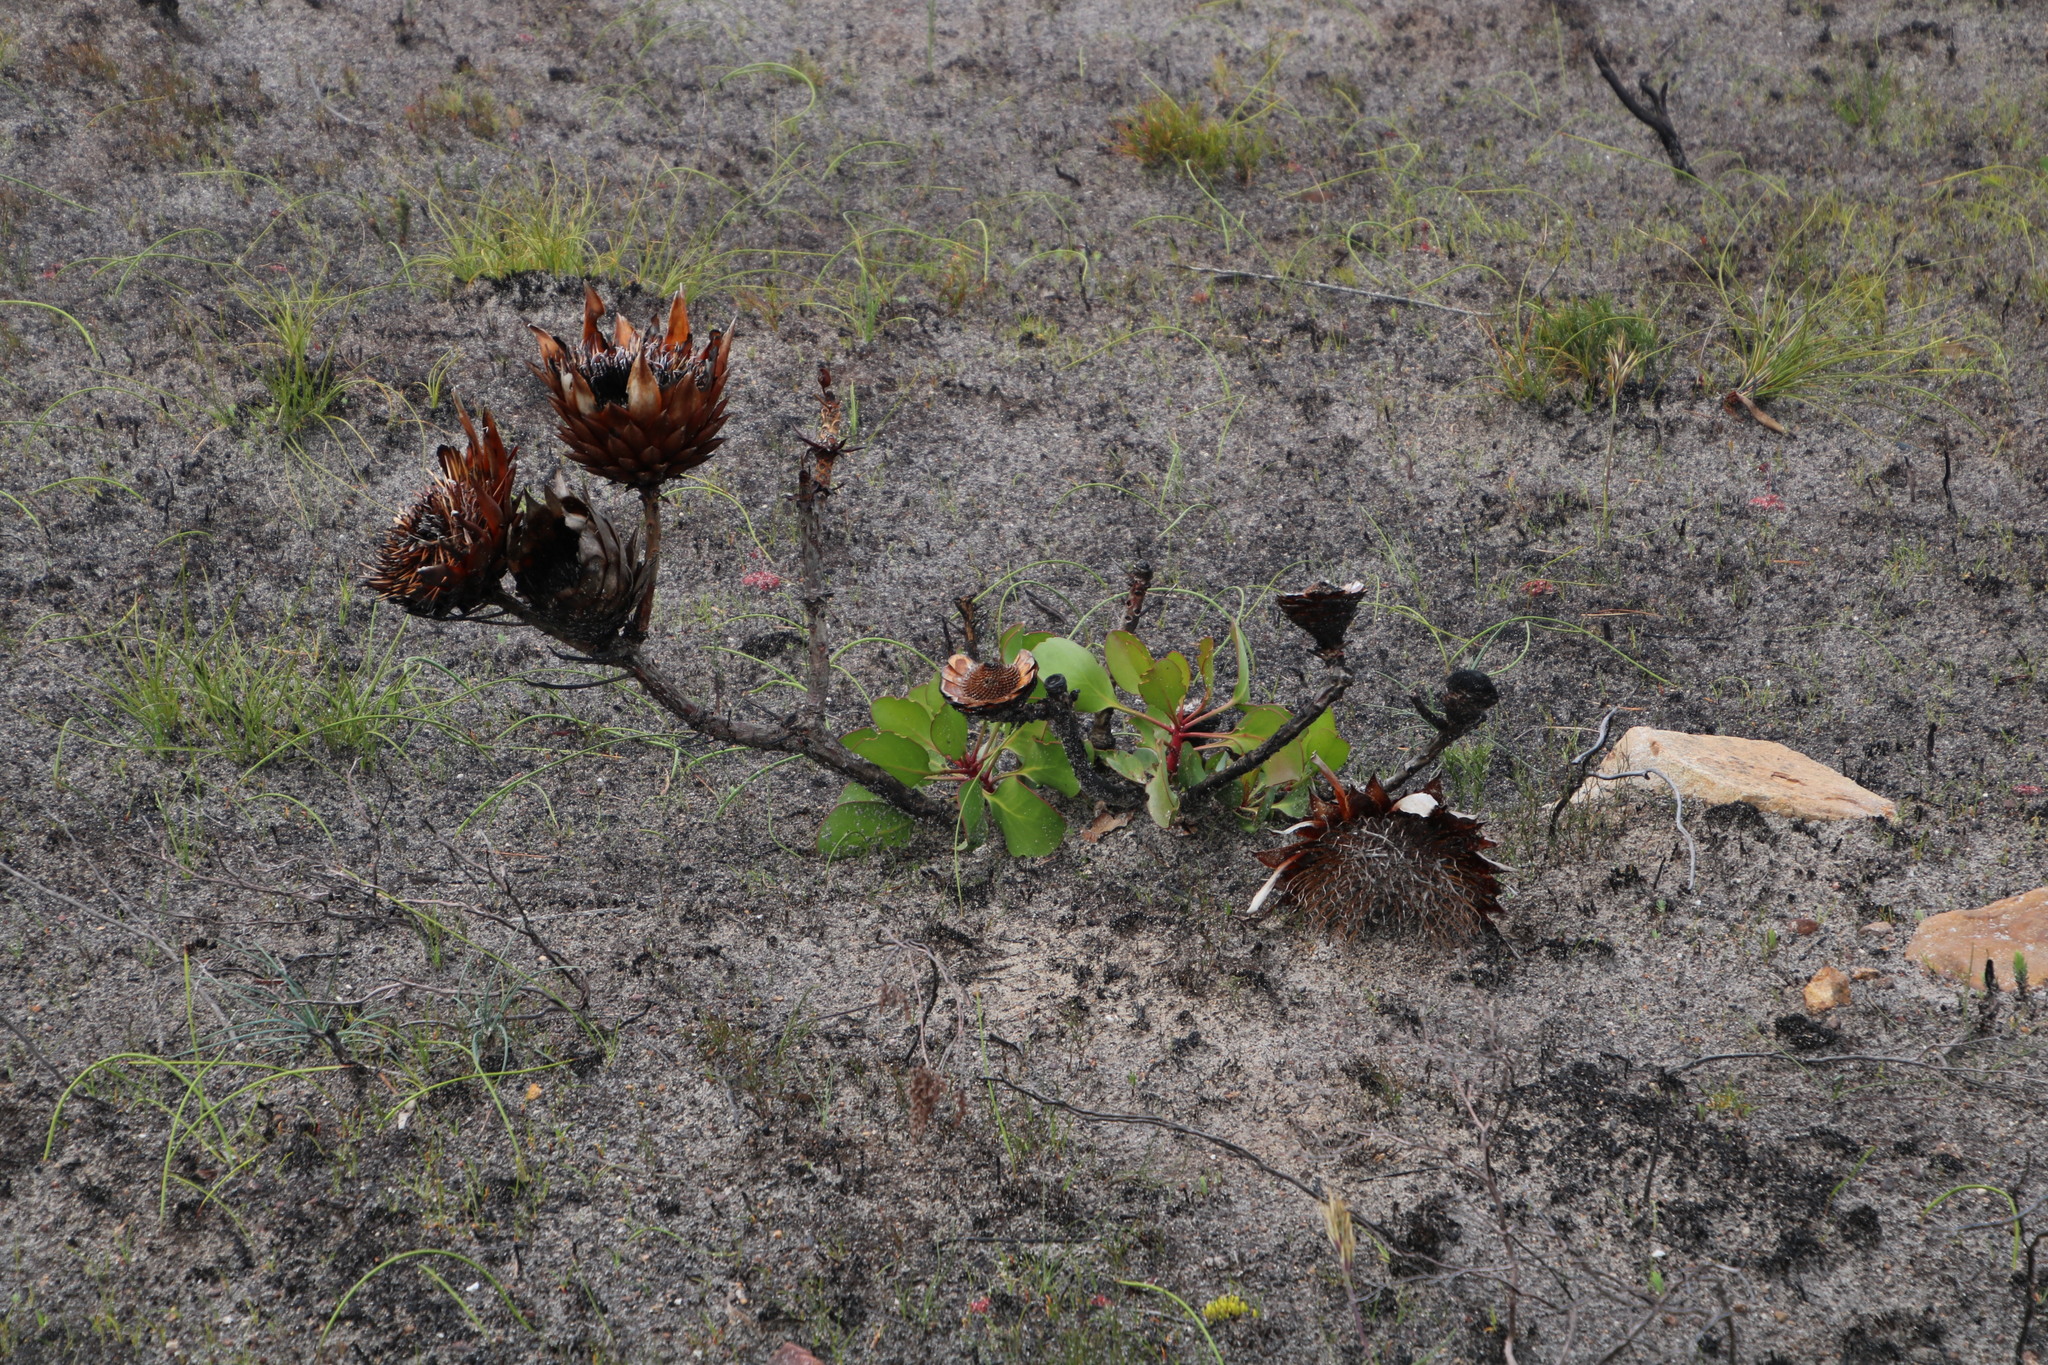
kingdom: Plantae
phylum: Tracheophyta
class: Magnoliopsida
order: Proteales
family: Proteaceae
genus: Protea
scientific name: Protea cynaroides
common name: King protea
